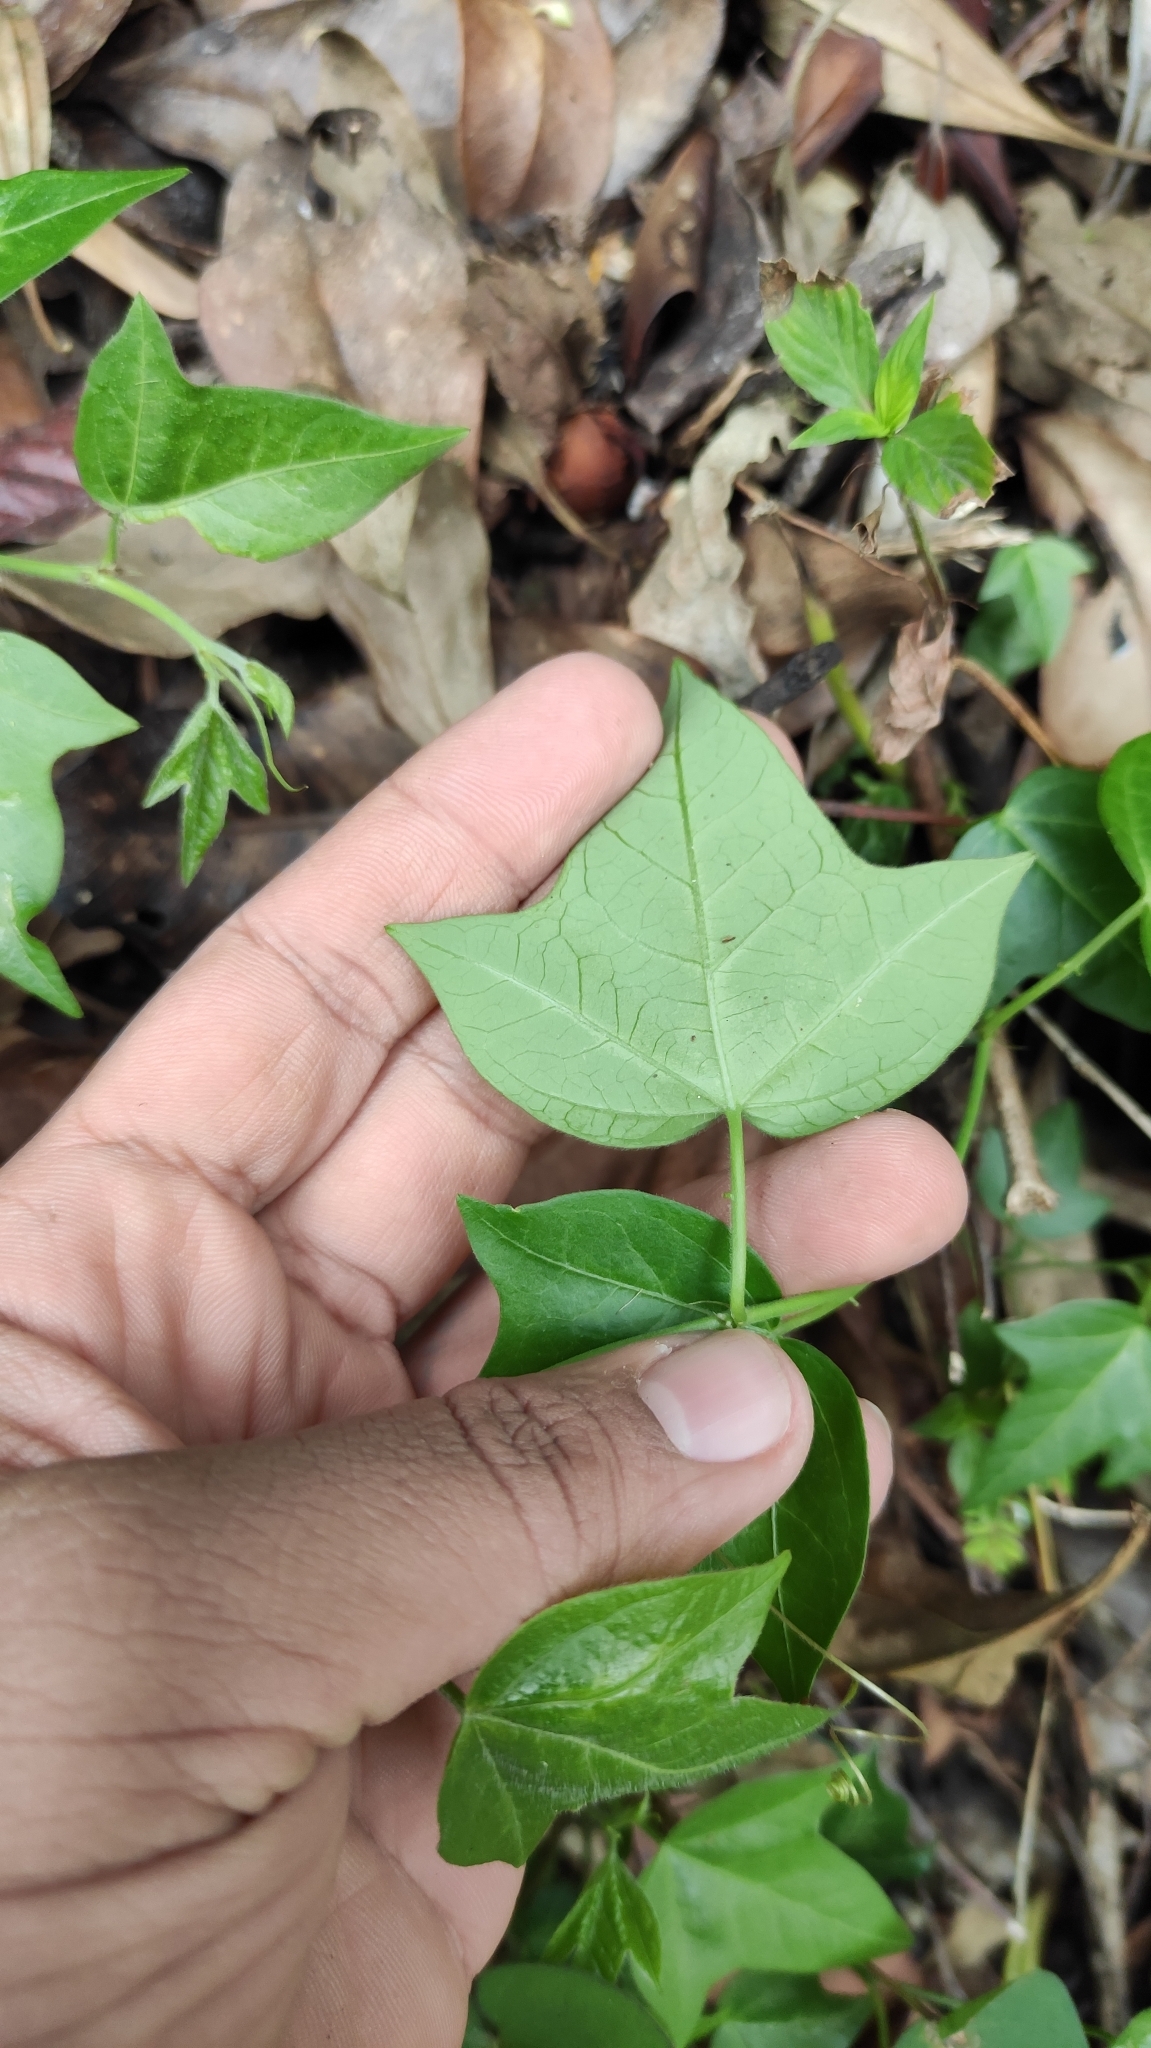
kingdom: Plantae
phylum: Tracheophyta
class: Magnoliopsida
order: Malpighiales
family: Passifloraceae
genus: Passiflora
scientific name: Passiflora suberosa
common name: Wild passionfruit
